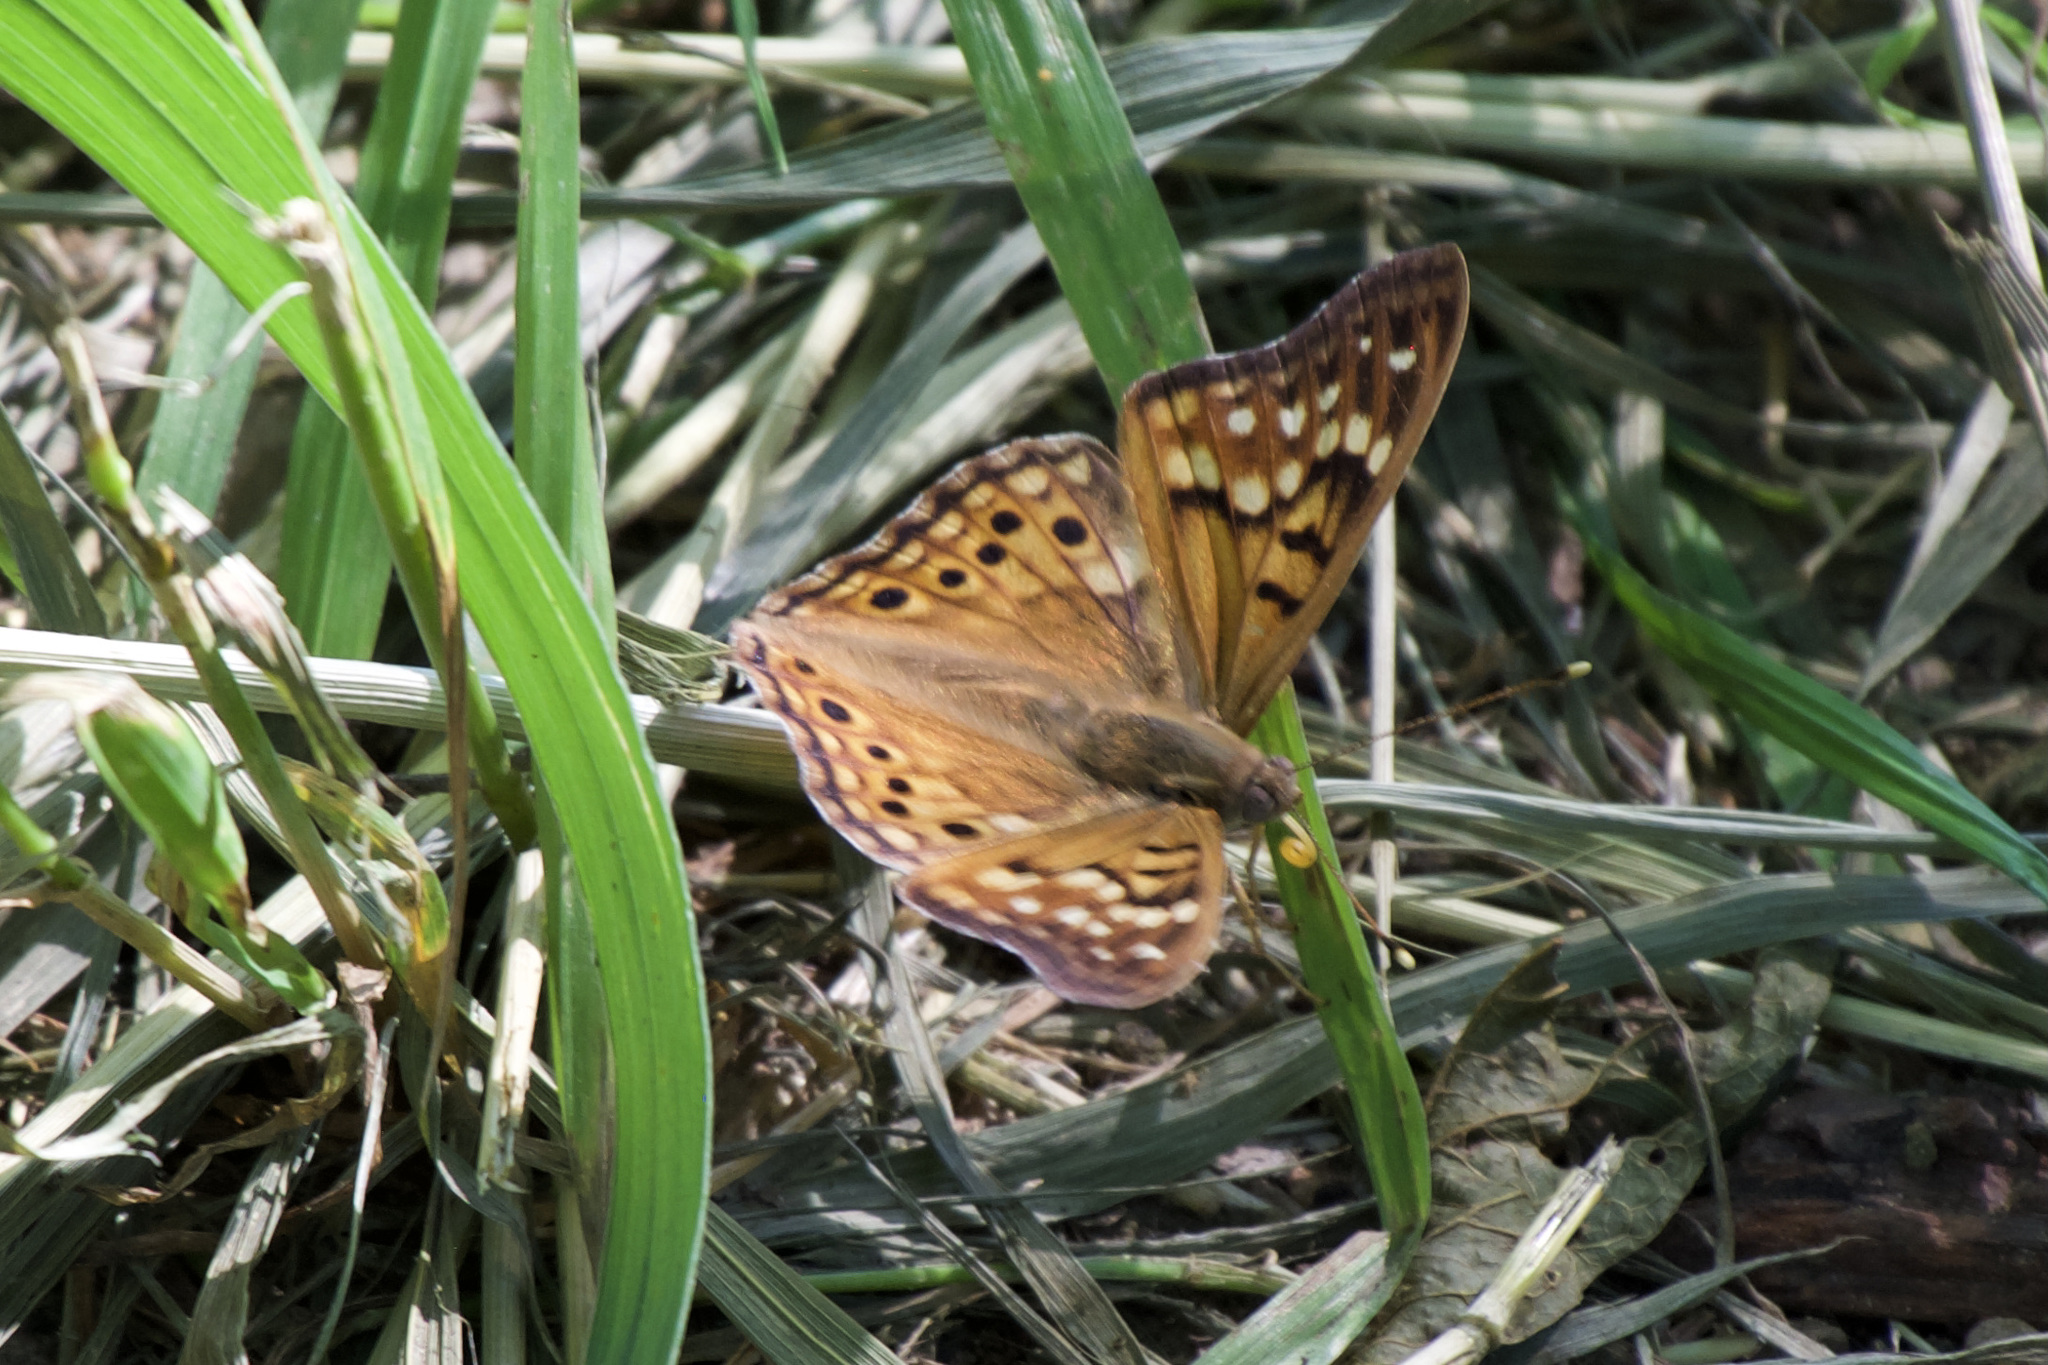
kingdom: Animalia
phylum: Arthropoda
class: Insecta
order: Lepidoptera
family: Nymphalidae
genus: Asterocampa
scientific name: Asterocampa clyton
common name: Tawny emperor
